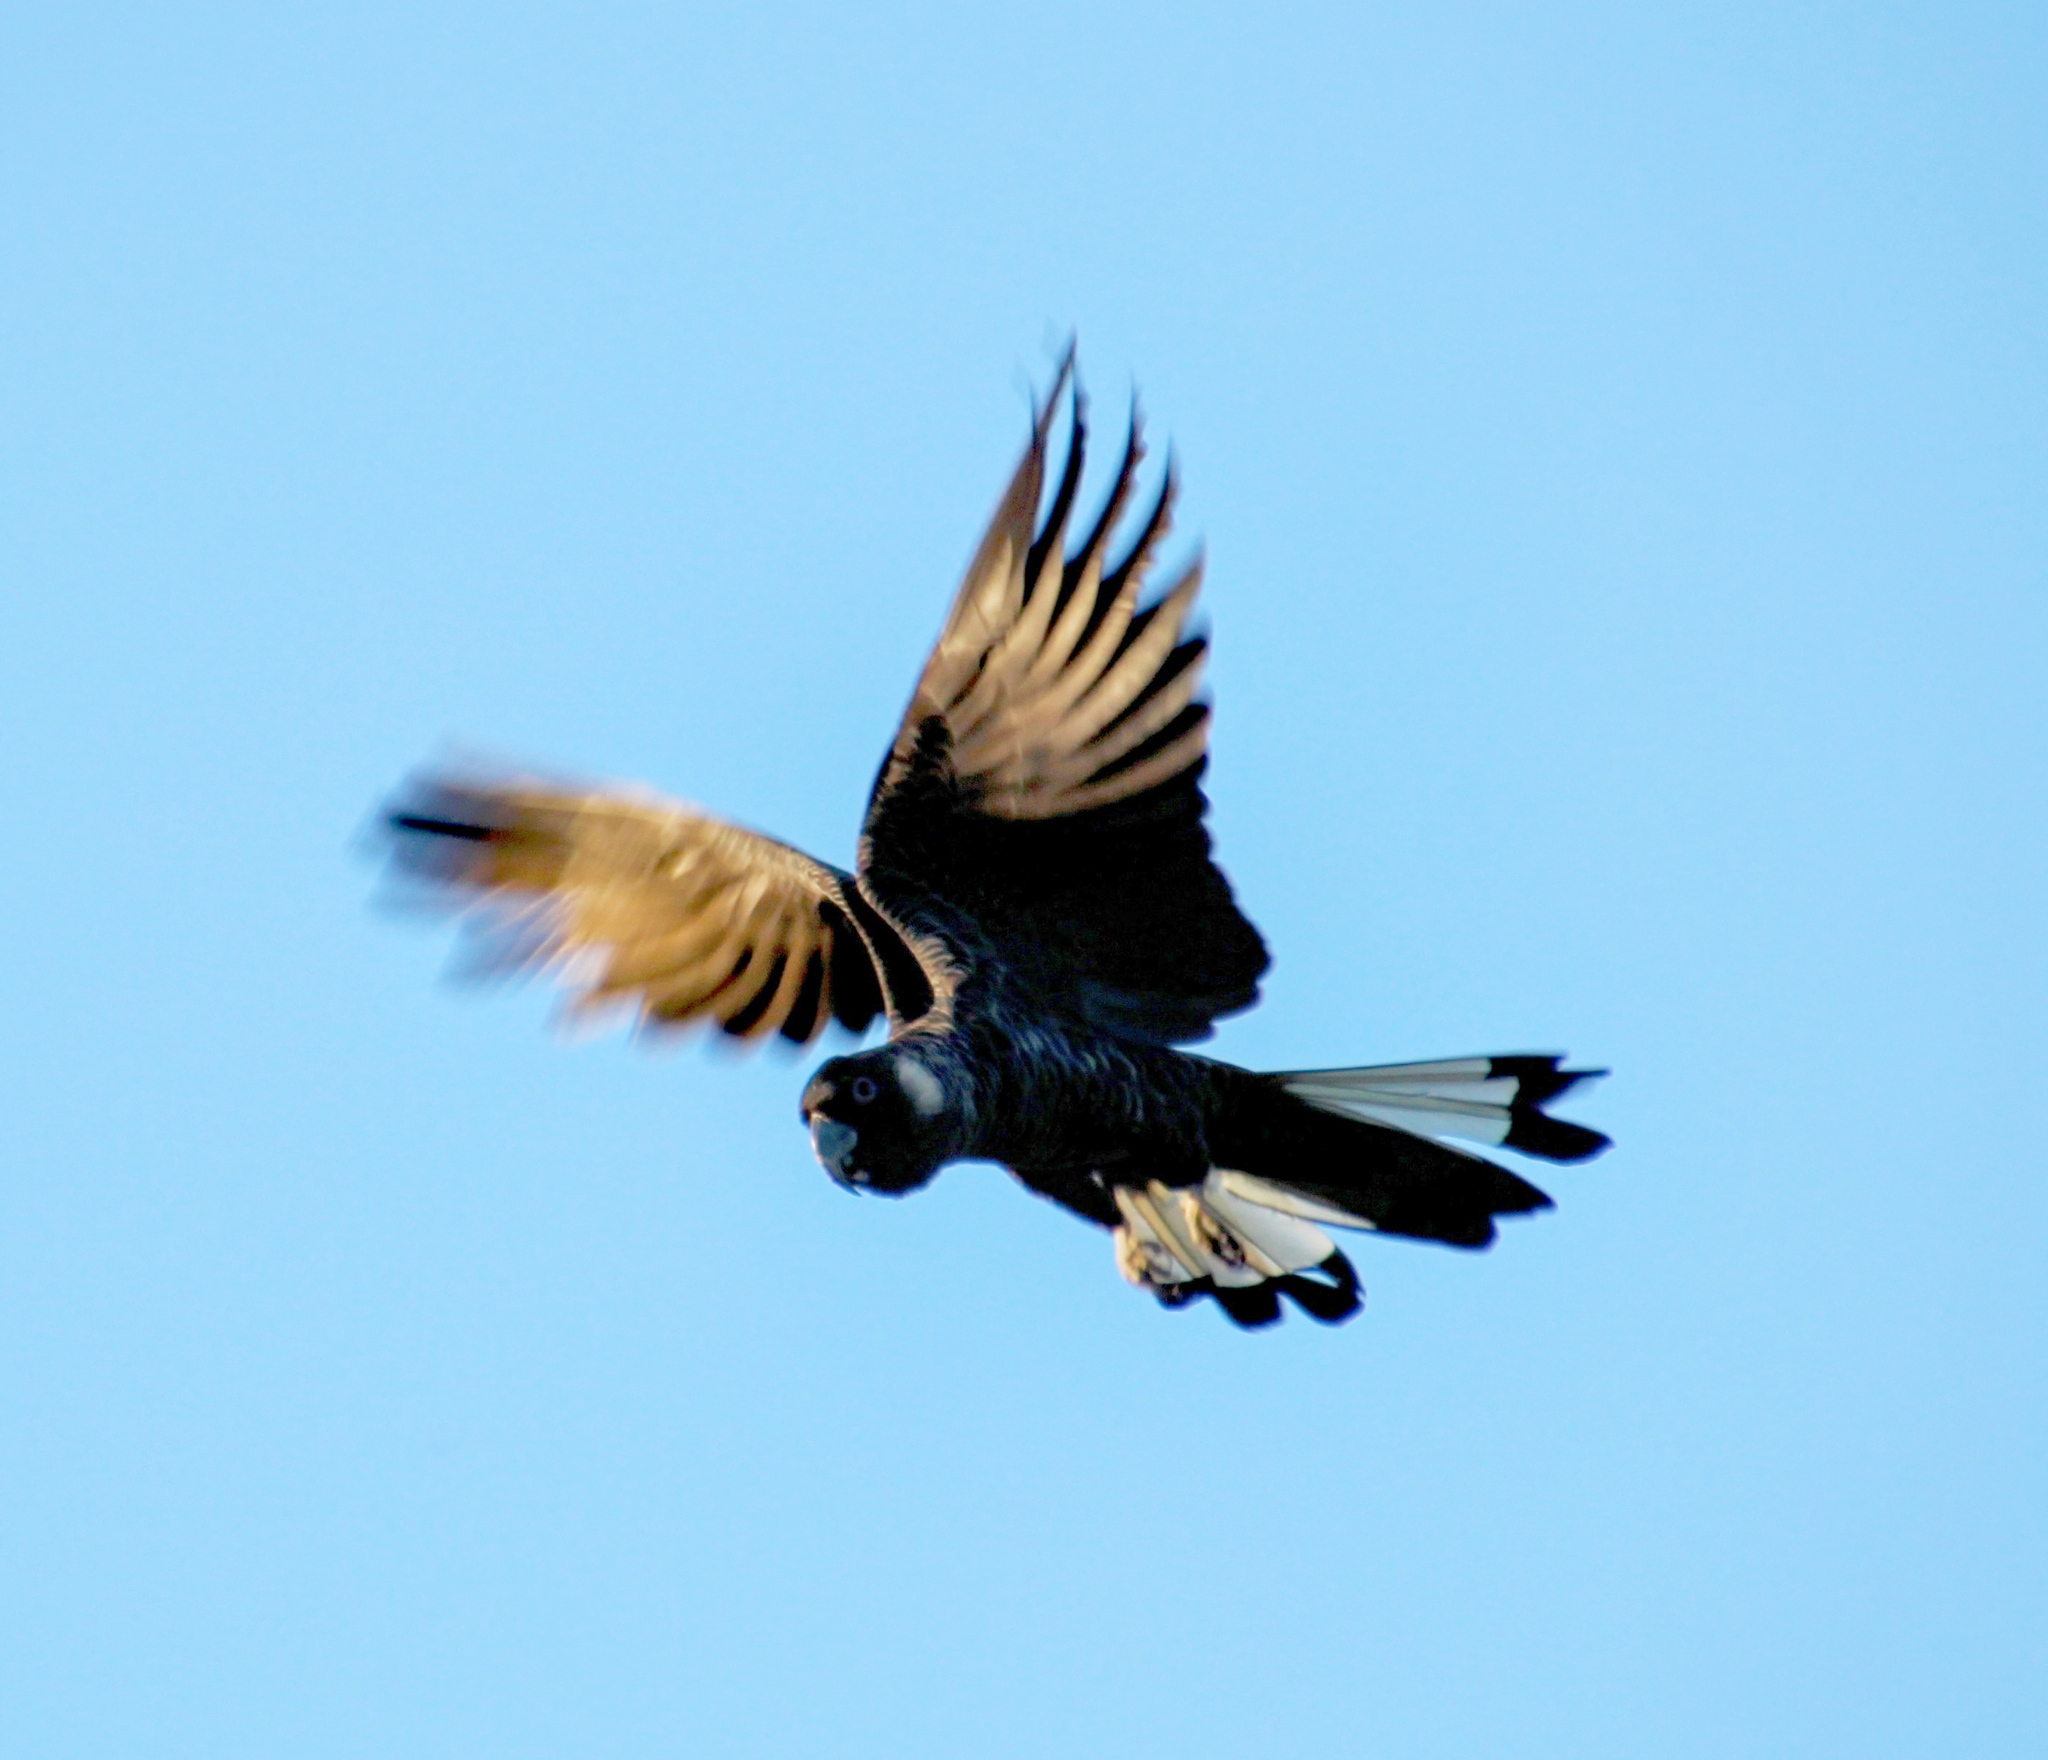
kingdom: Animalia
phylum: Chordata
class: Aves
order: Psittaciformes
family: Cacatuidae
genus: Zanda
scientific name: Zanda baudinii
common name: Long-billed black-cockatoo
